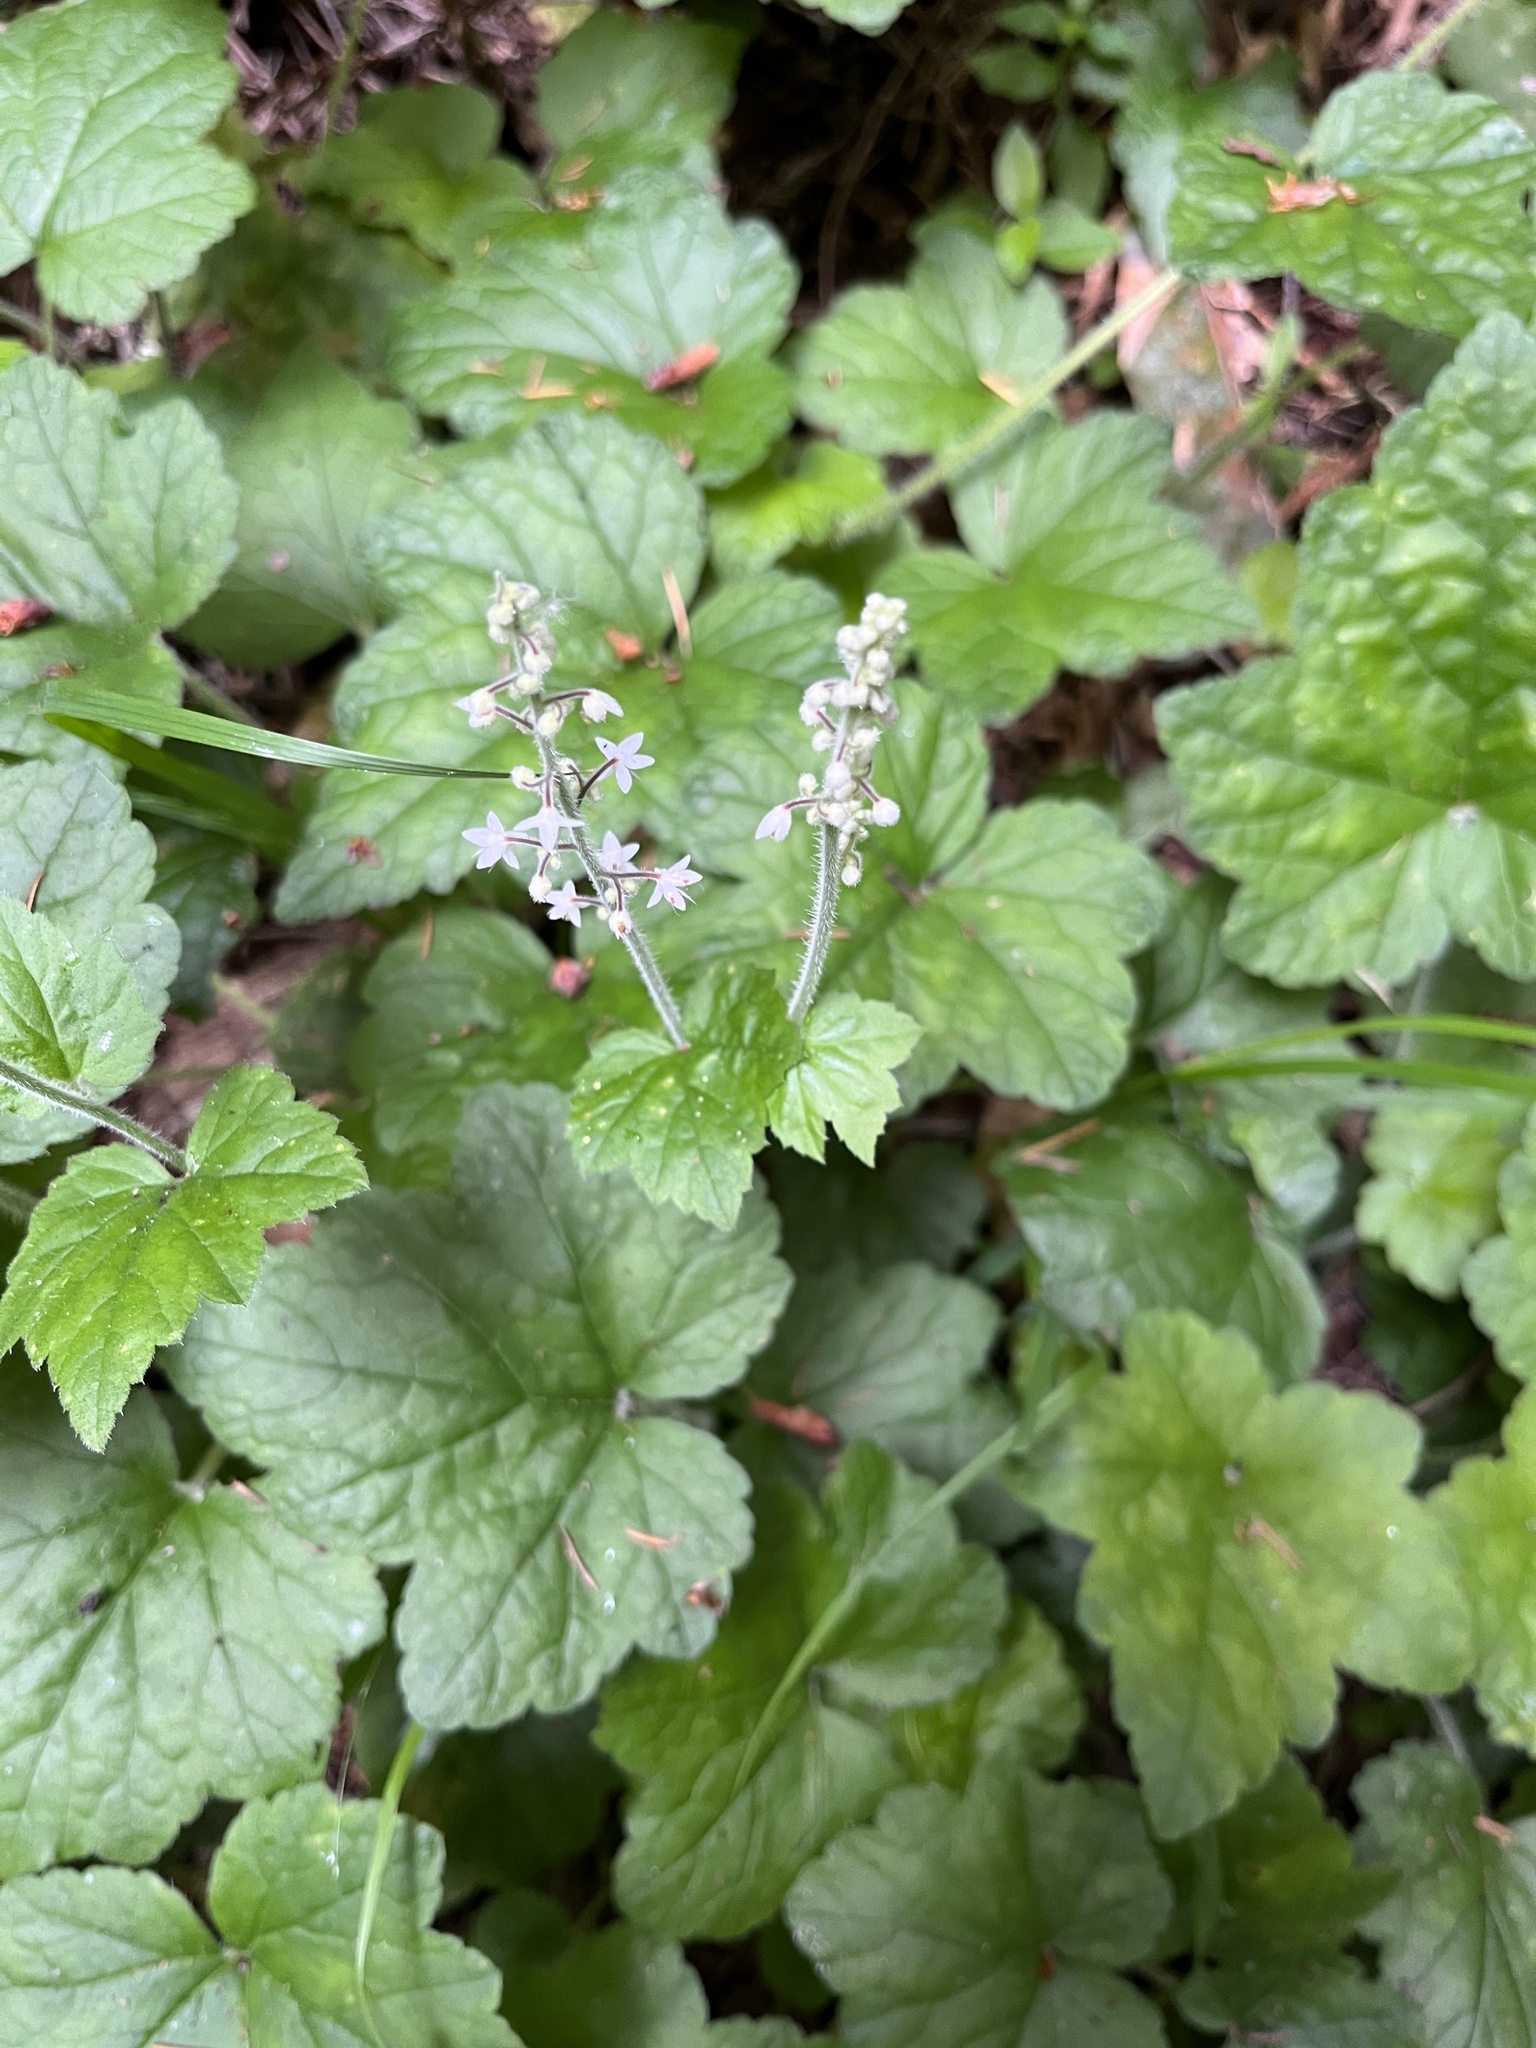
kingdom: Plantae
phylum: Tracheophyta
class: Magnoliopsida
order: Saxifragales
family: Saxifragaceae
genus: Tiarella
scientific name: Tiarella trifoliata
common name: Sugar-scoop
